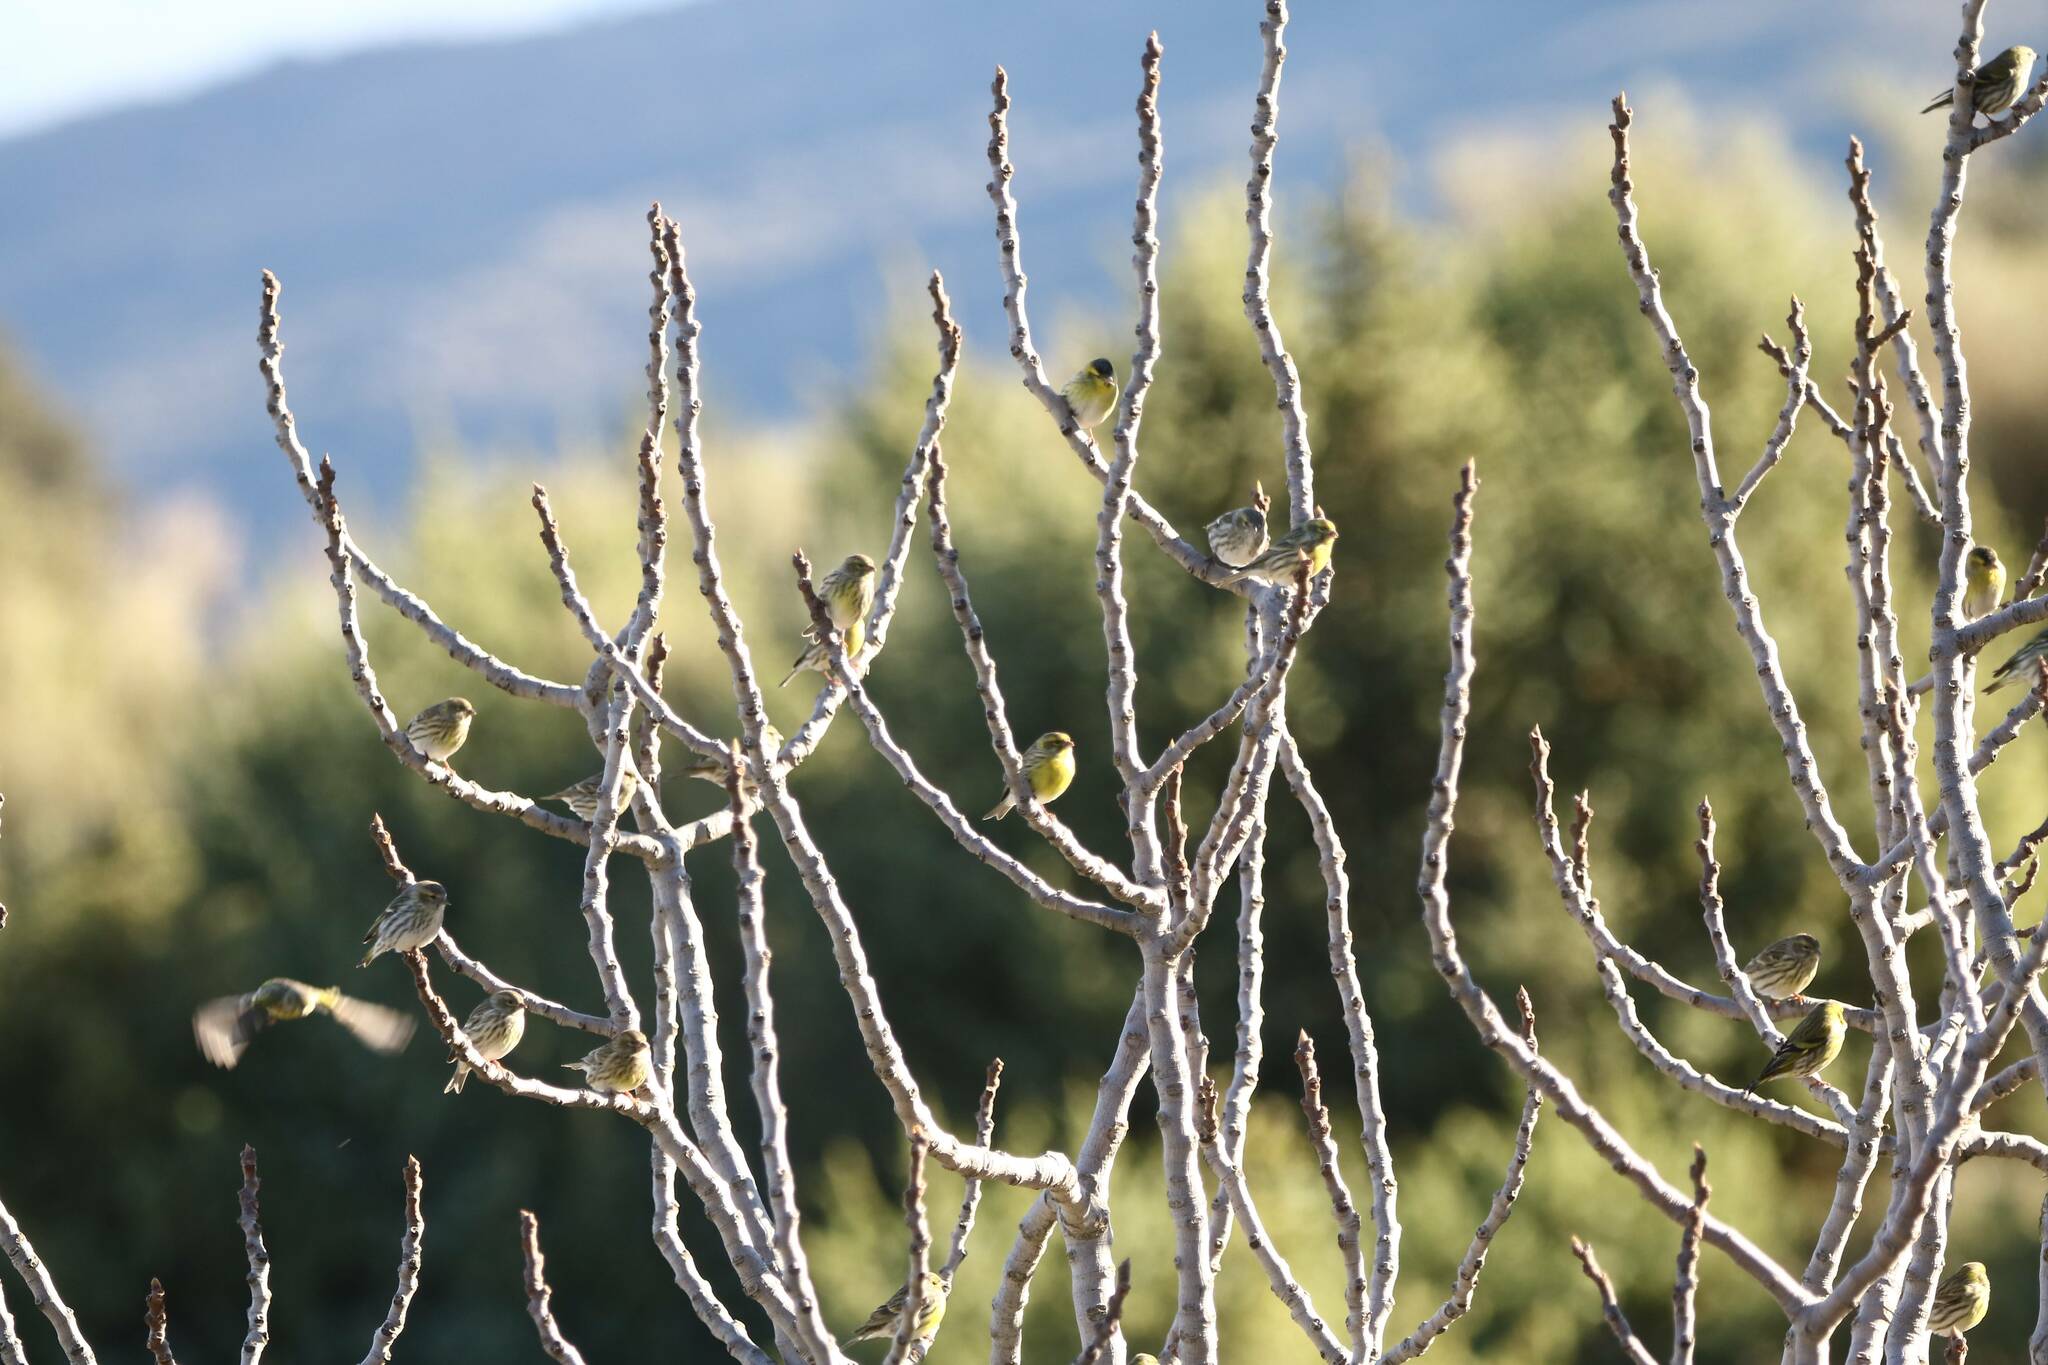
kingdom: Animalia
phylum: Chordata
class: Aves
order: Passeriformes
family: Fringillidae
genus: Spinus
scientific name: Spinus spinus
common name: Eurasian siskin
